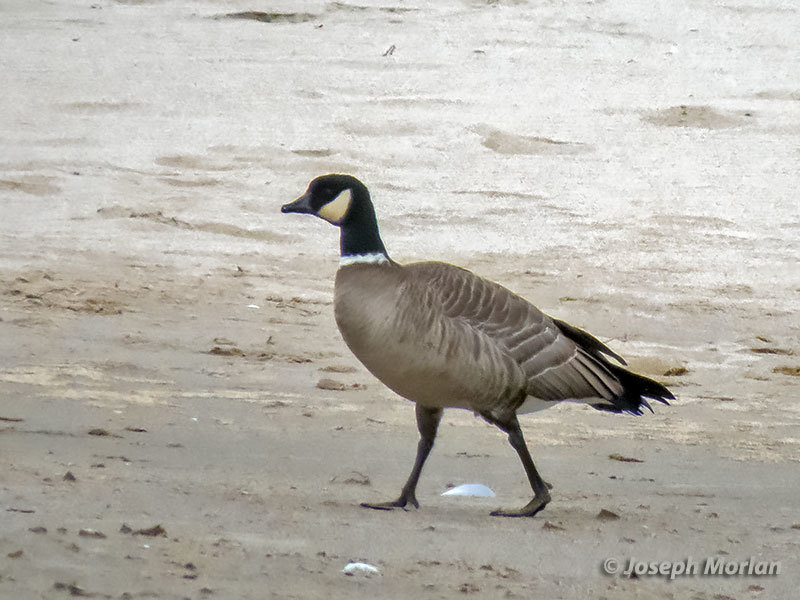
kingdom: Animalia
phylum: Chordata
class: Aves
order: Anseriformes
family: Anatidae
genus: Branta
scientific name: Branta hutchinsii
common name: Cackling goose
